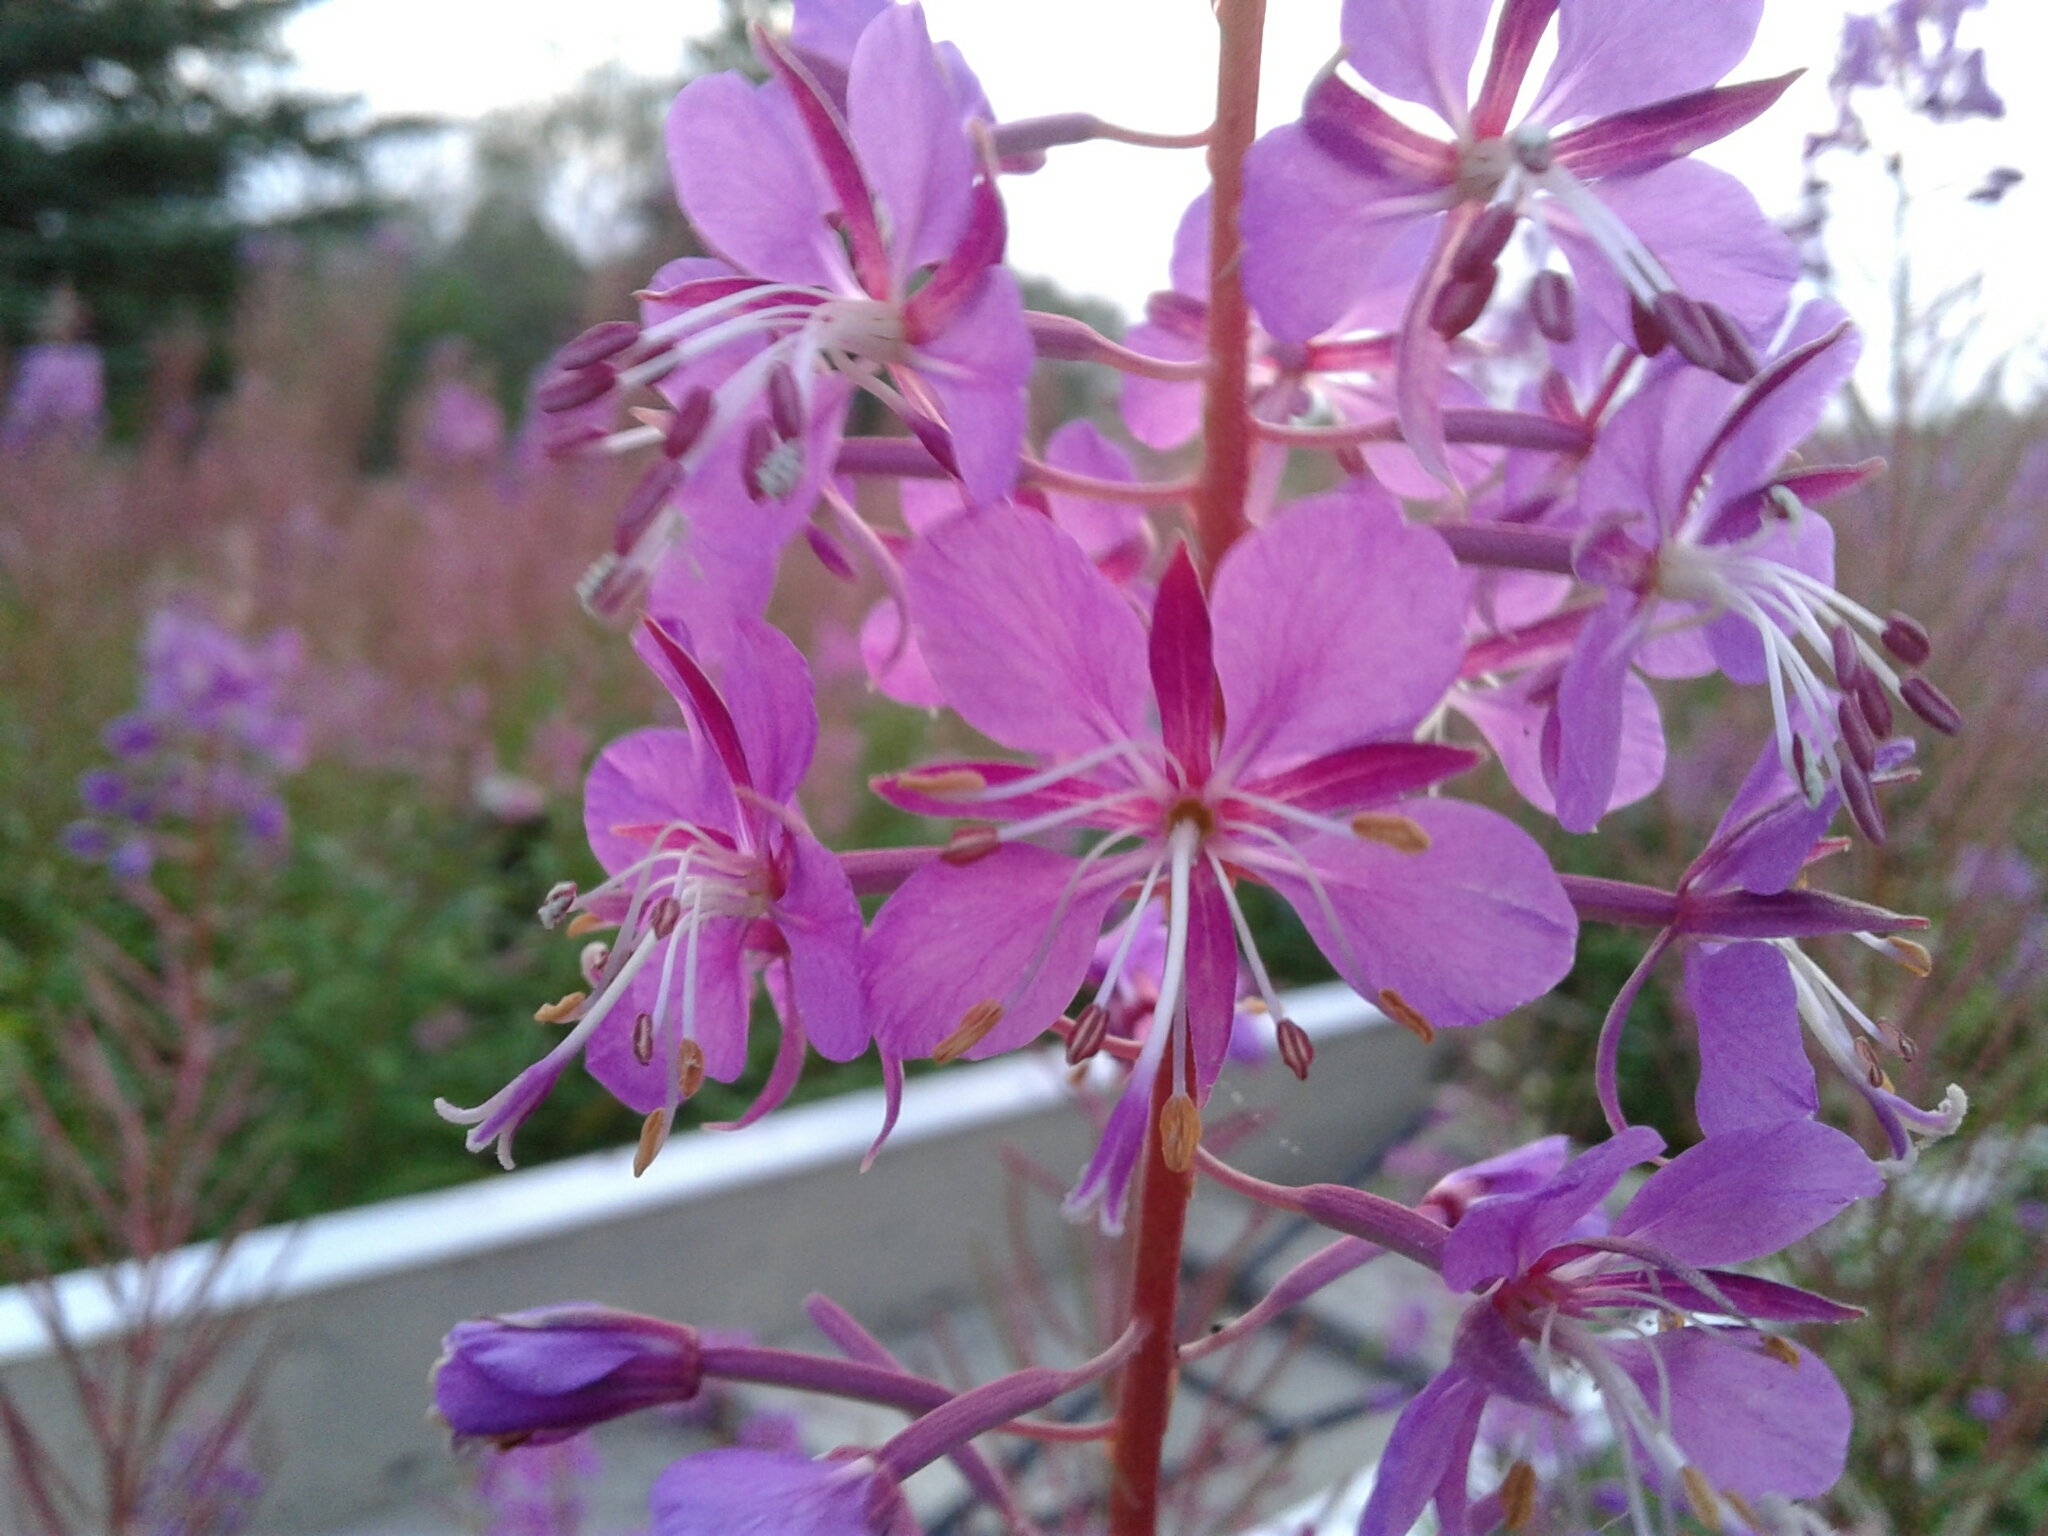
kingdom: Plantae
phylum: Tracheophyta
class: Magnoliopsida
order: Myrtales
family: Onagraceae
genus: Chamaenerion
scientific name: Chamaenerion angustifolium
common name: Fireweed
